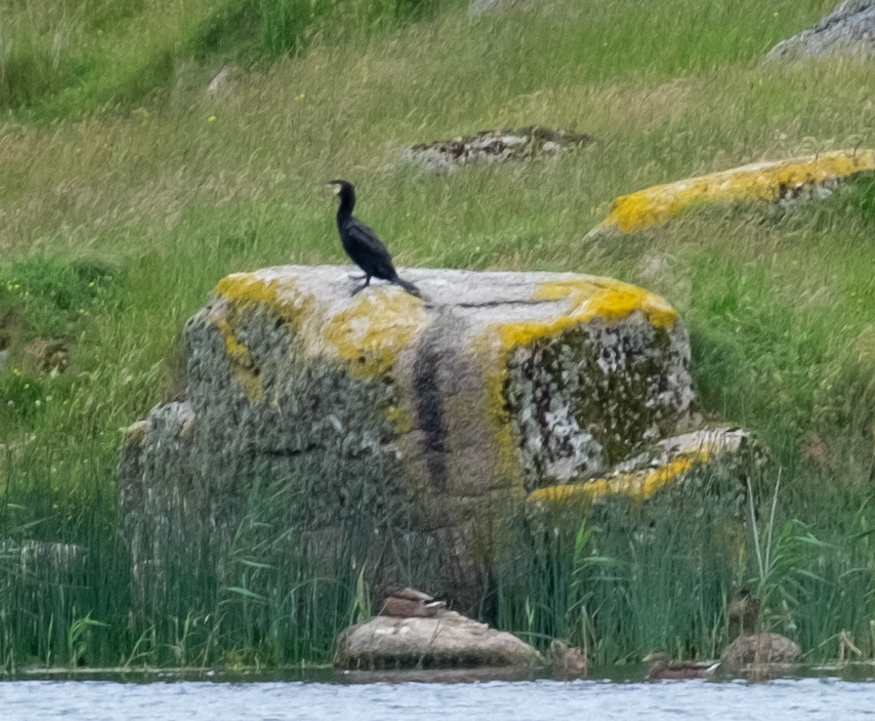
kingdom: Animalia
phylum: Chordata
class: Aves
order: Suliformes
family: Phalacrocoracidae
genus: Phalacrocorax
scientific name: Phalacrocorax carbo
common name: Great cormorant
